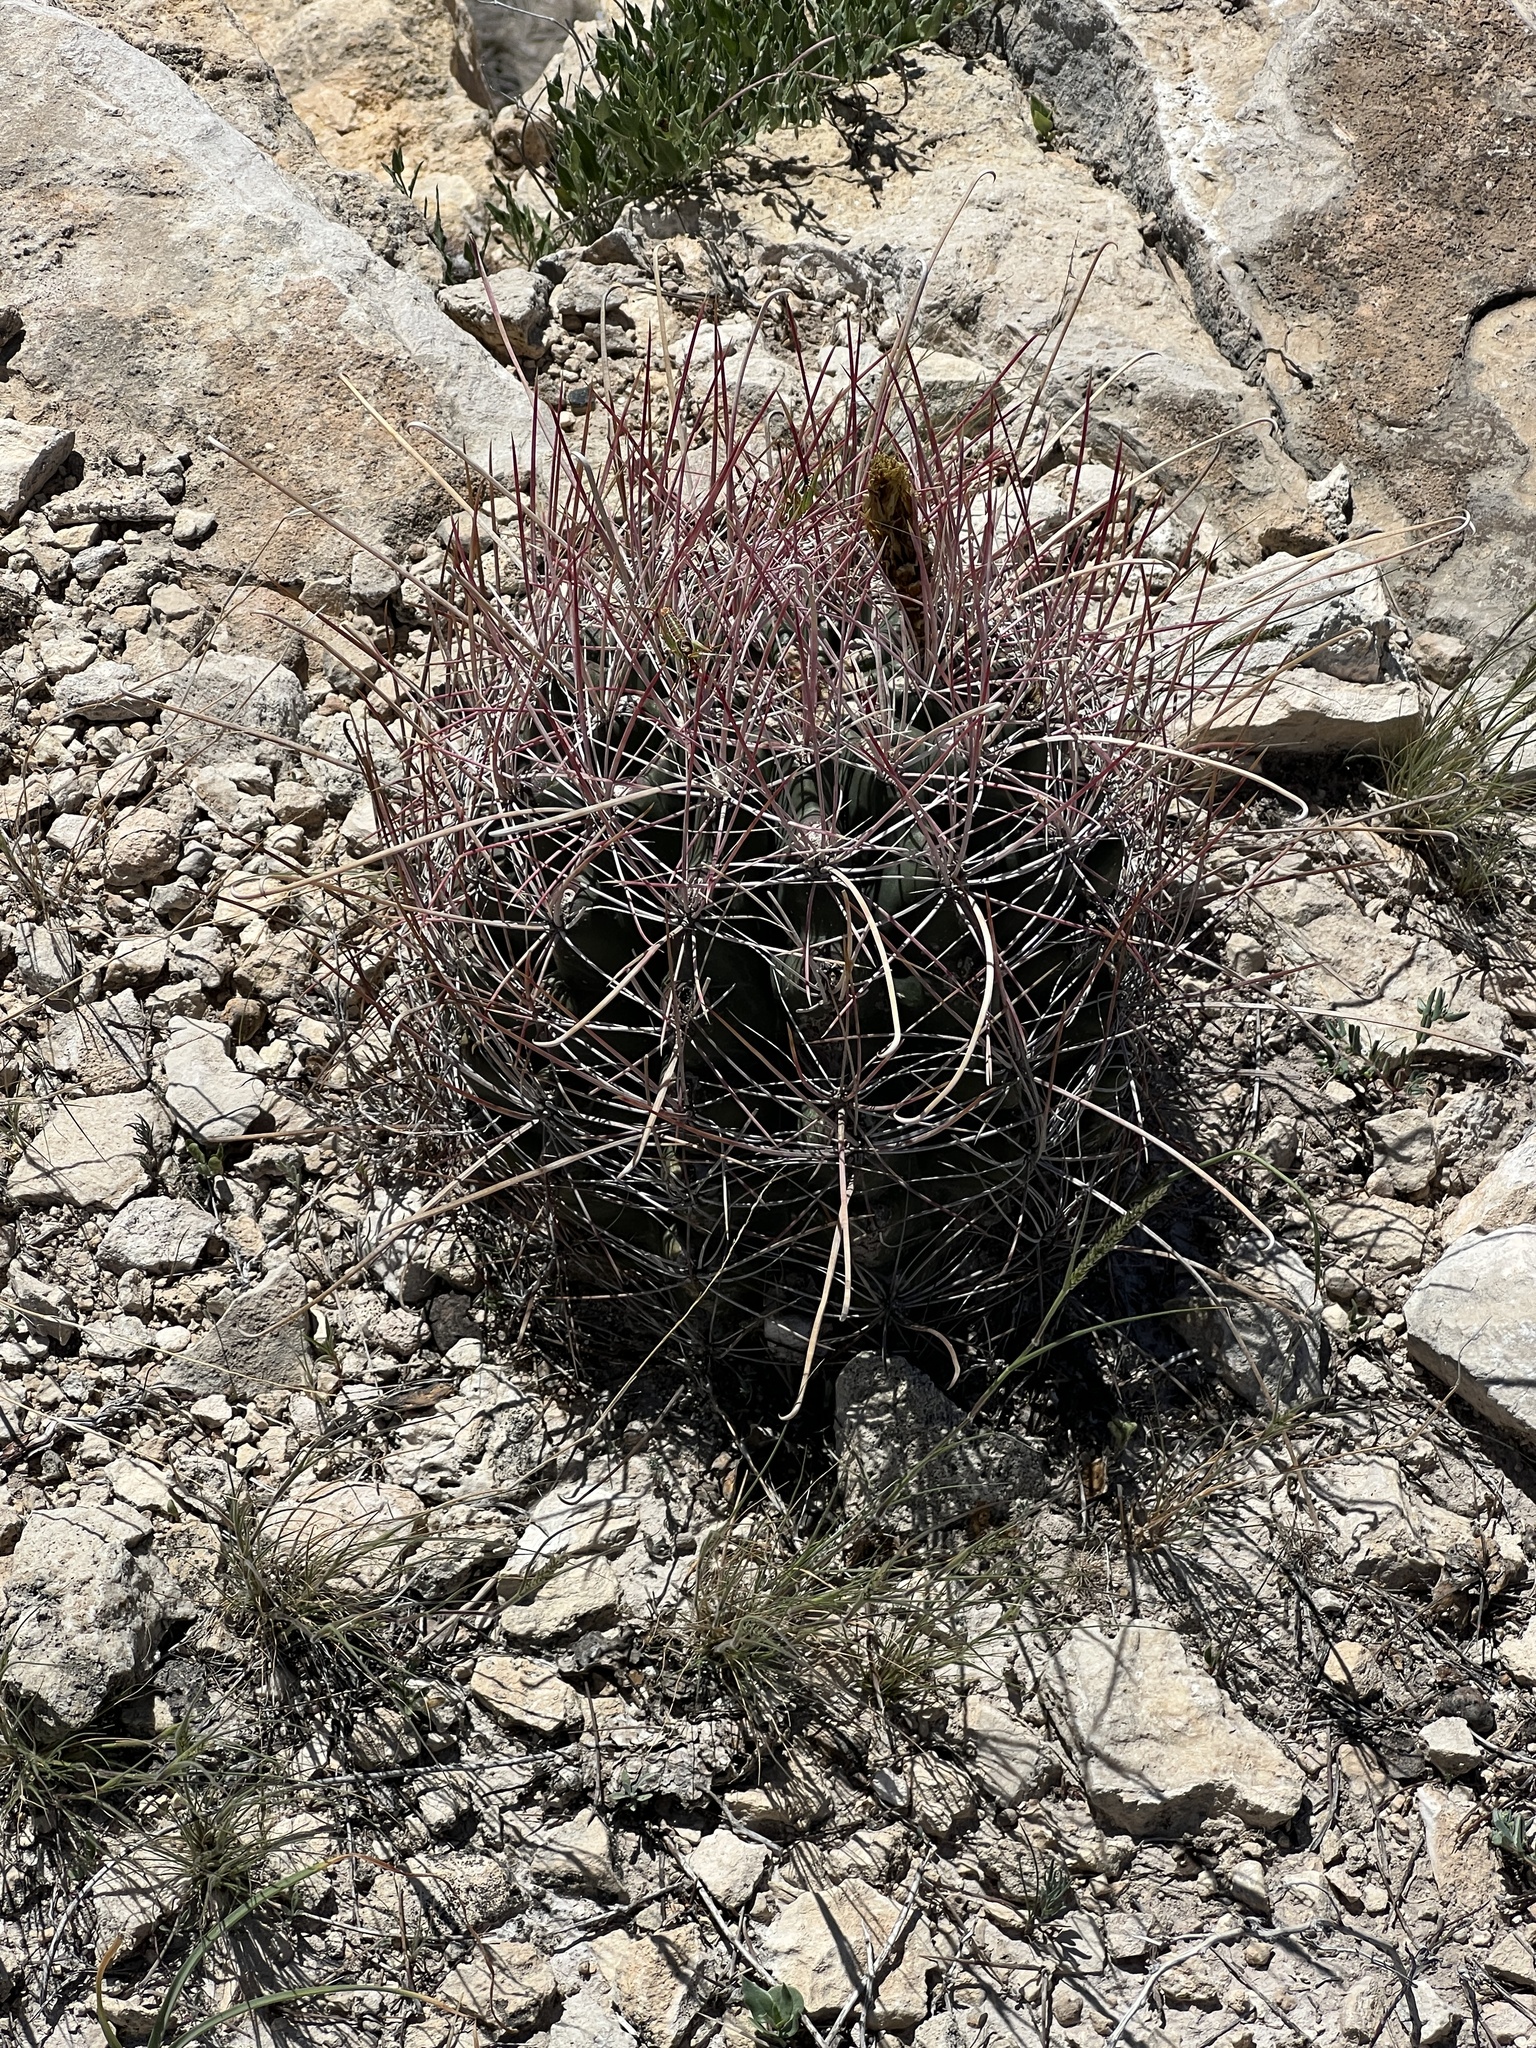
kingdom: Plantae
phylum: Tracheophyta
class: Magnoliopsida
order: Caryophyllales
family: Cactaceae
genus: Bisnaga
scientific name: Bisnaga hamatacantha
